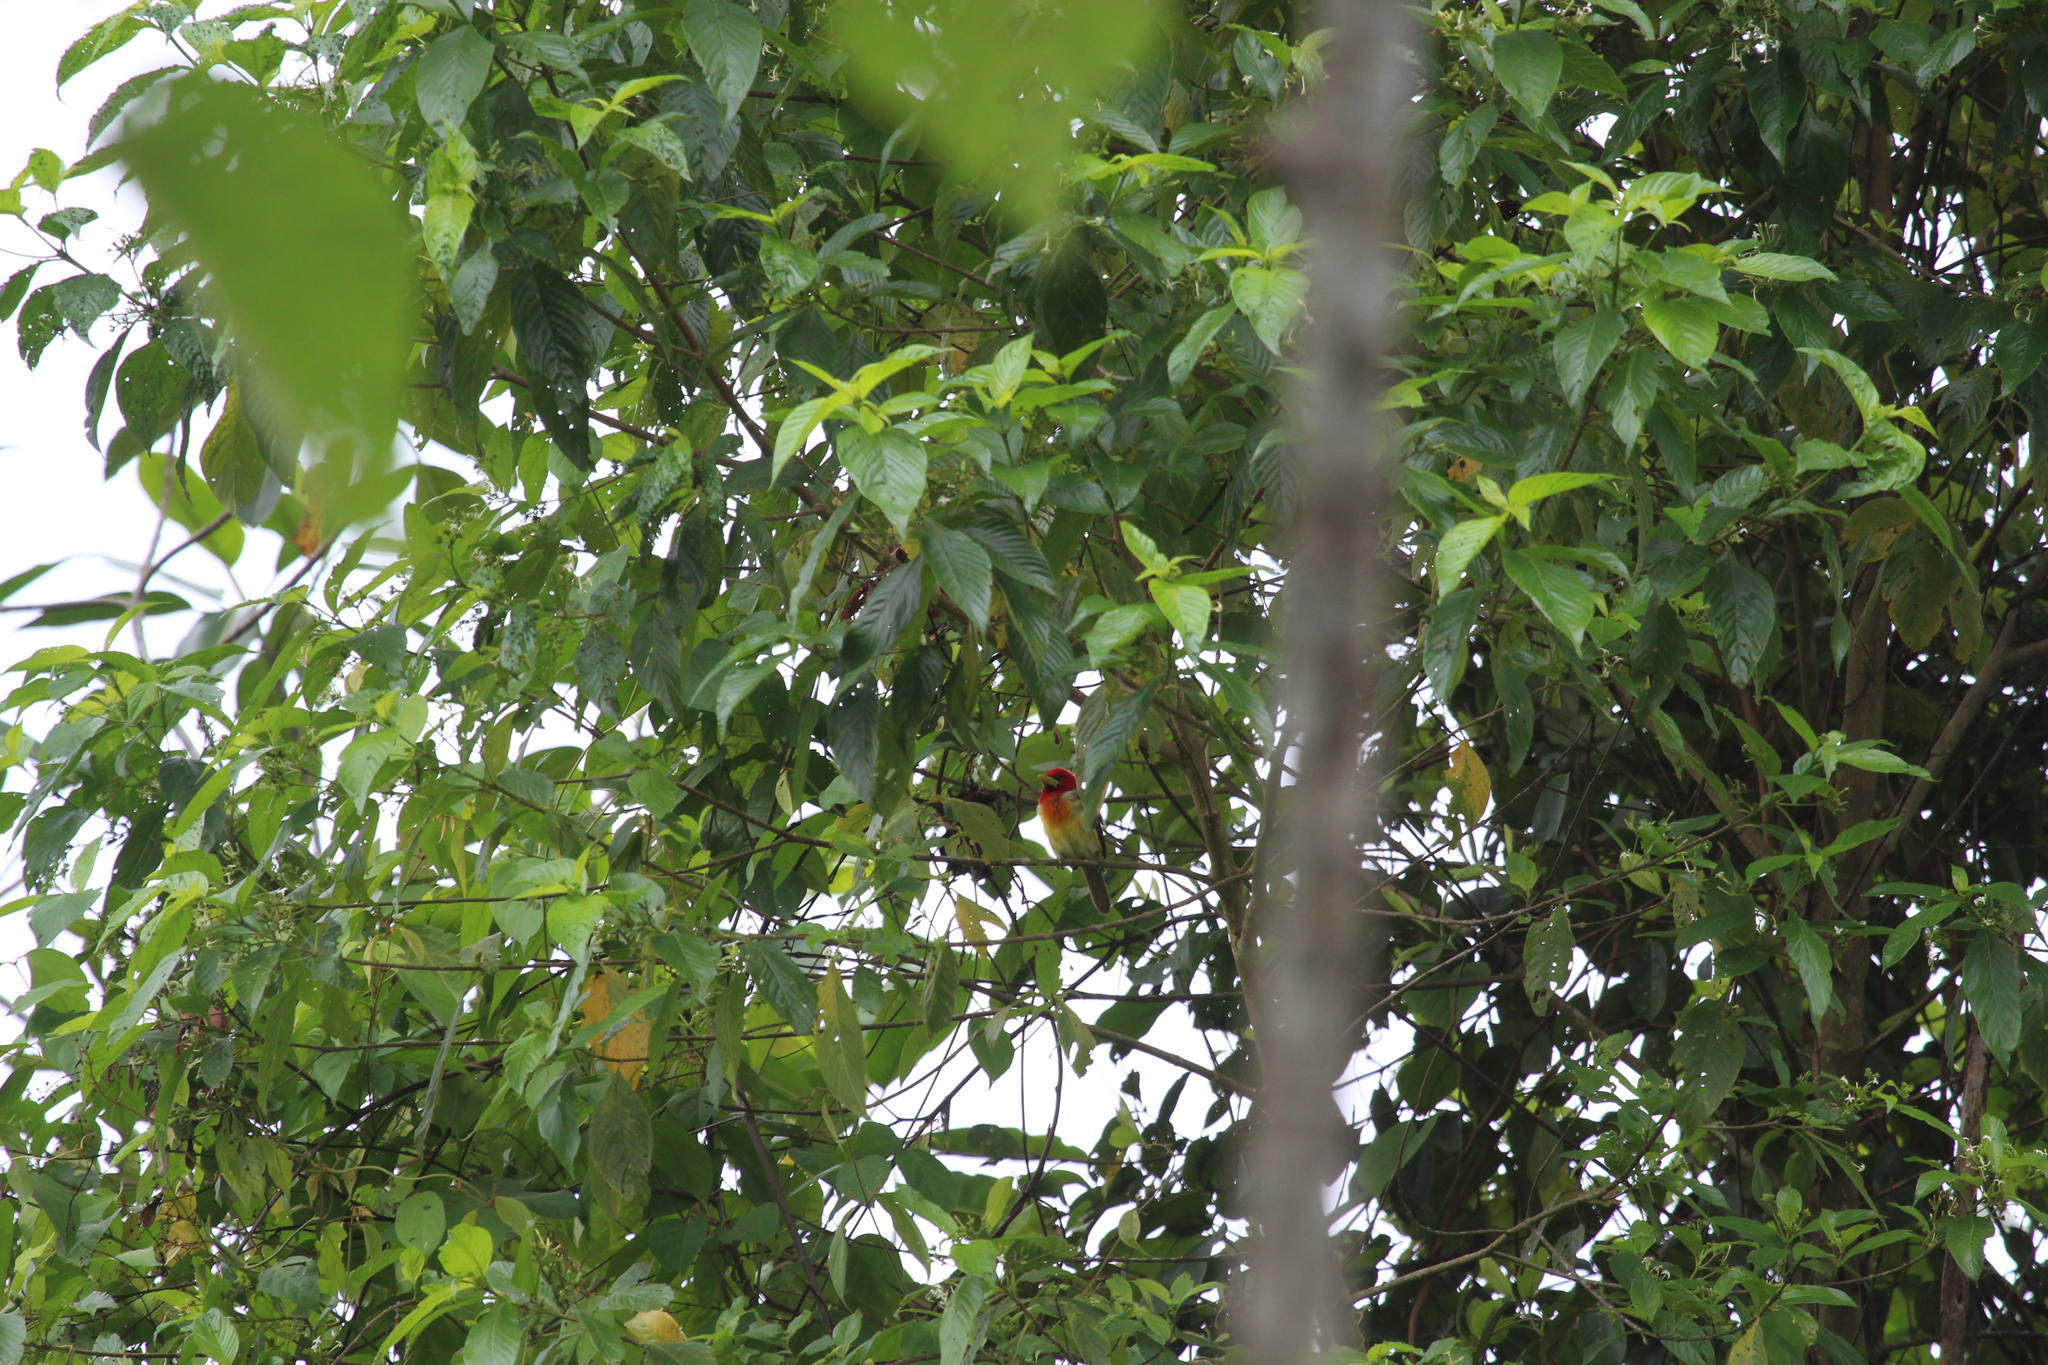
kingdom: Animalia
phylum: Chordata
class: Aves
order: Piciformes
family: Capitonidae
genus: Eubucco
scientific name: Eubucco tucinkae
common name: Scarlet-hooded barbet
